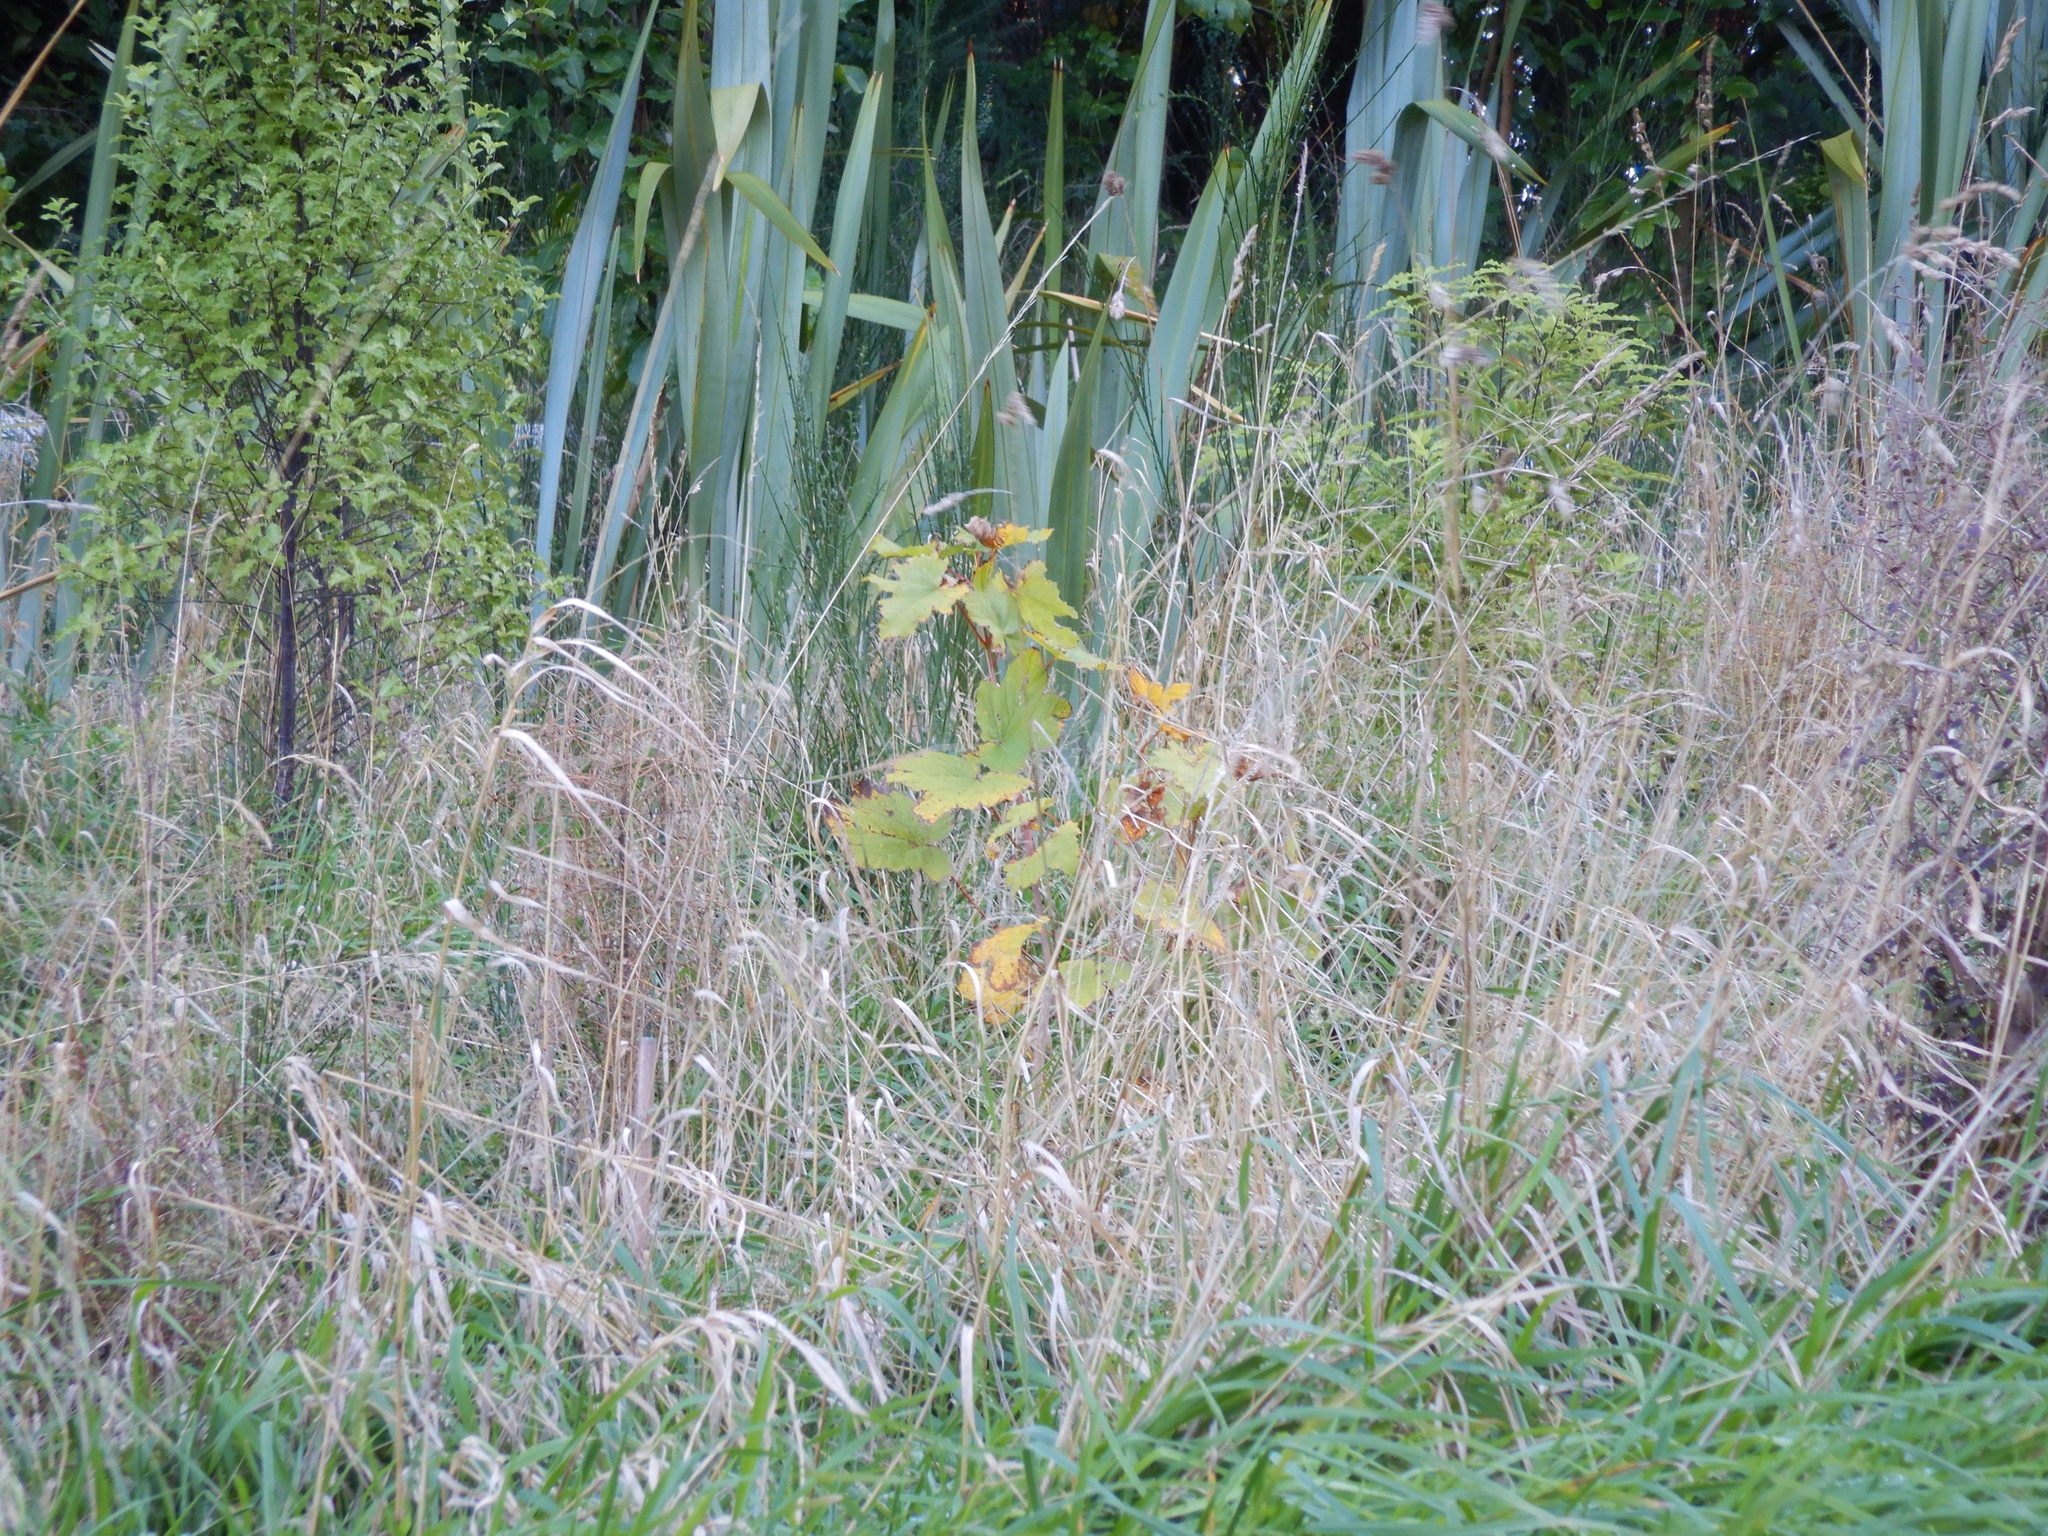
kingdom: Plantae
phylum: Tracheophyta
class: Magnoliopsida
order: Sapindales
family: Sapindaceae
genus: Acer
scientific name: Acer pseudoplatanus
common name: Sycamore
